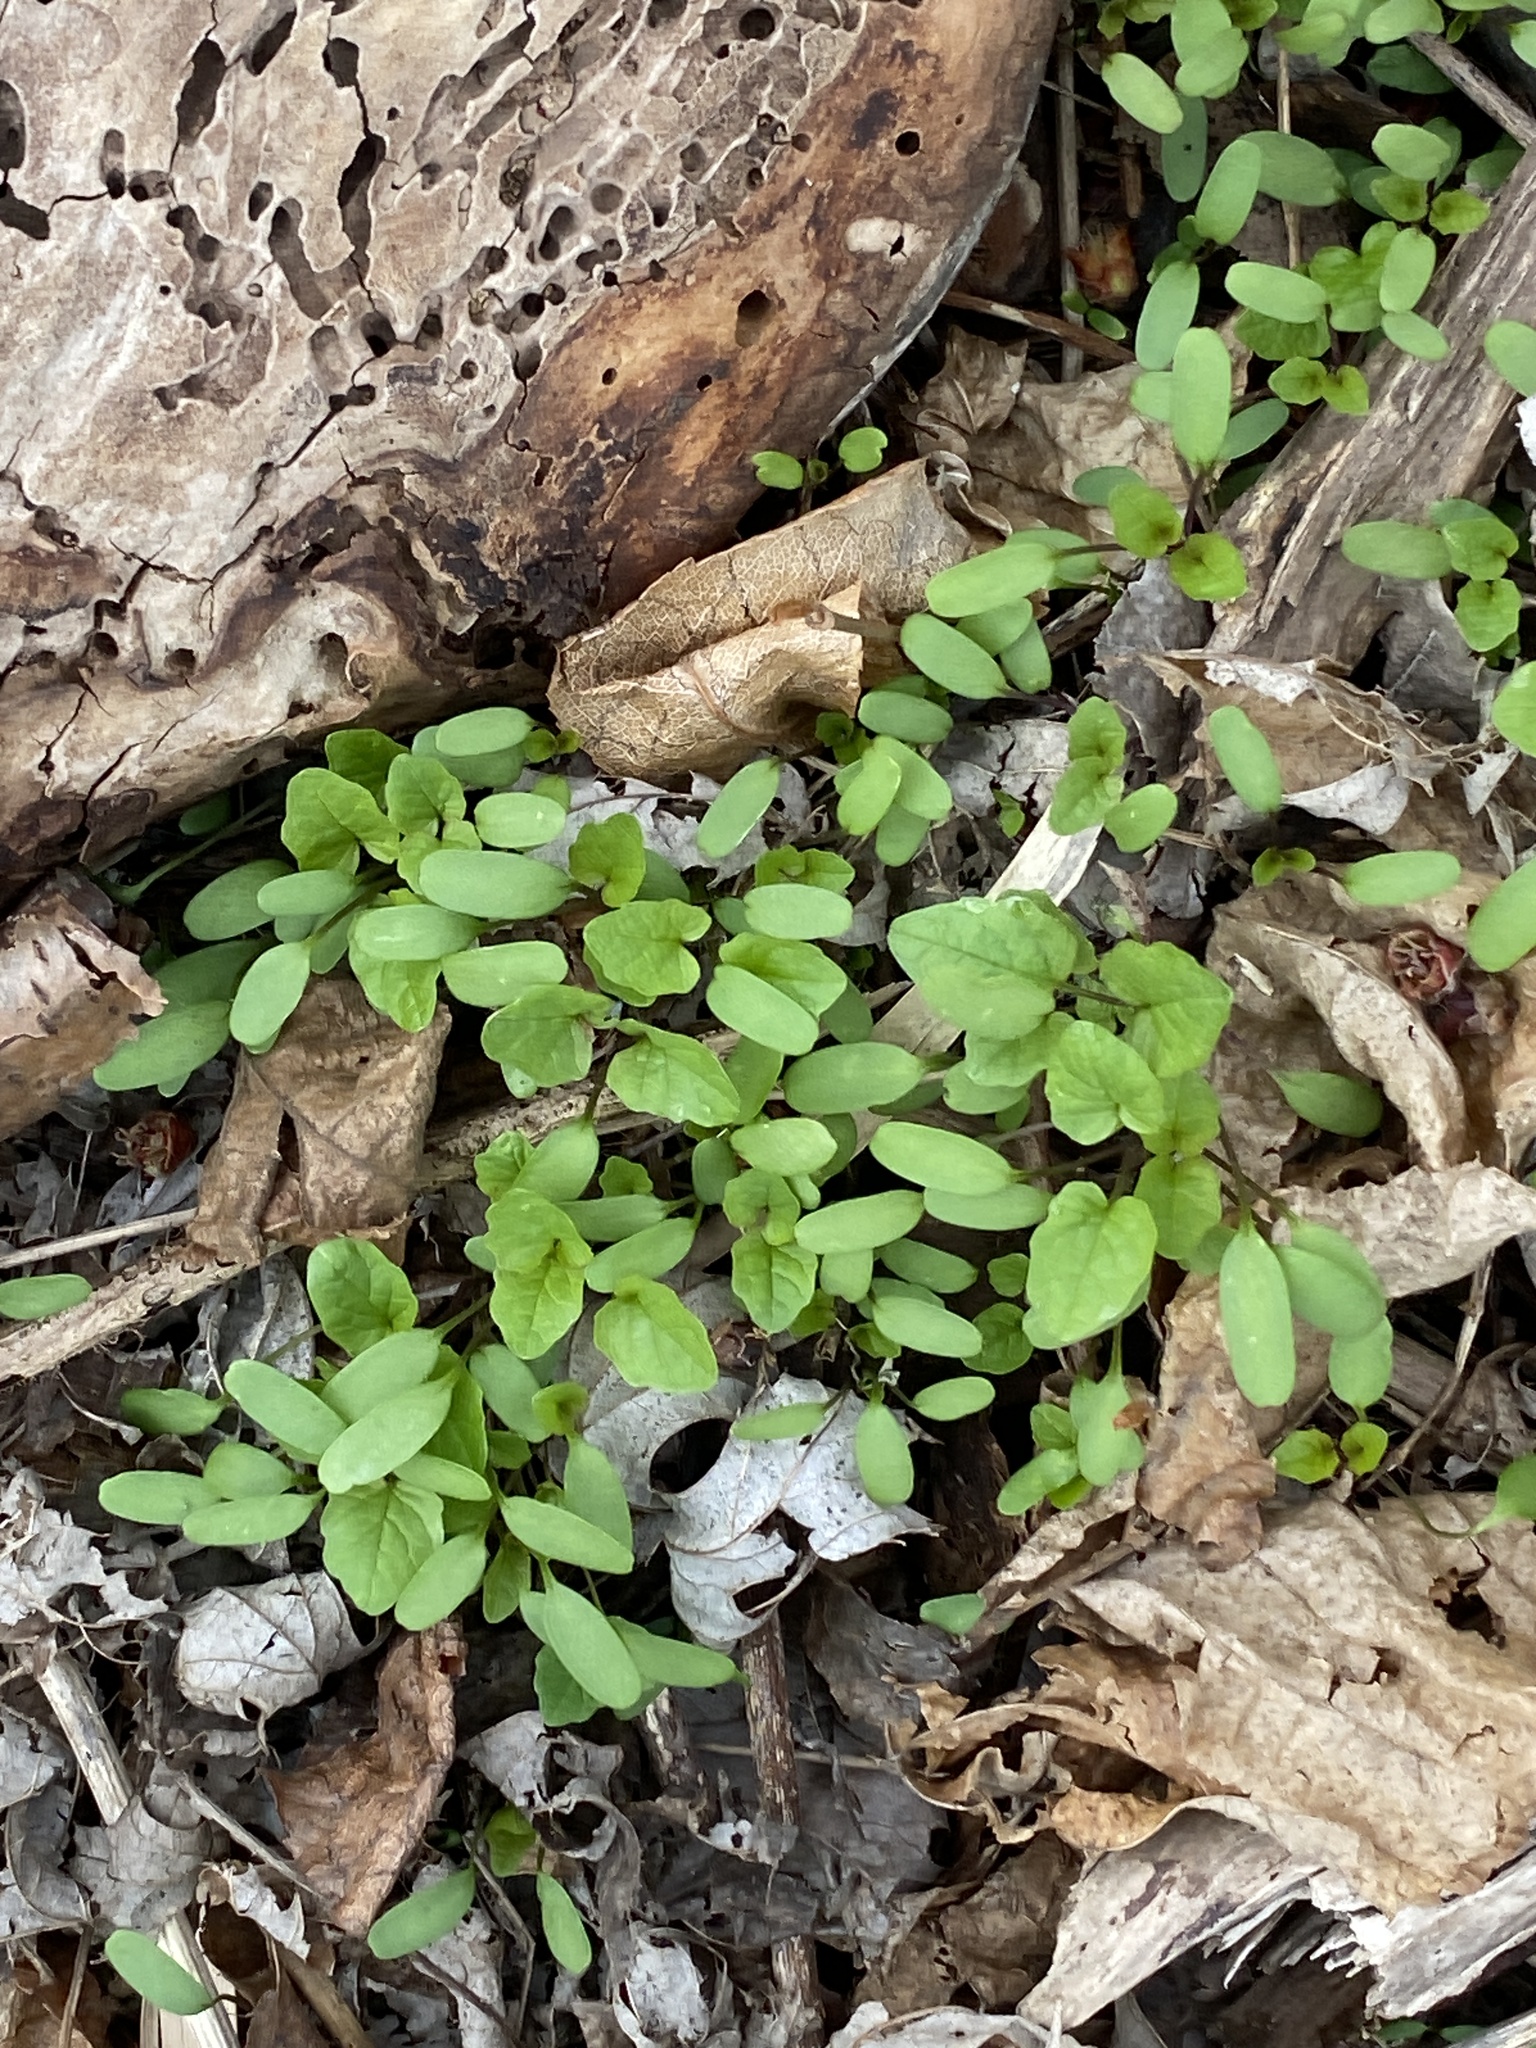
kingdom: Plantae
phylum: Tracheophyta
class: Magnoliopsida
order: Brassicales
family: Brassicaceae
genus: Alliaria
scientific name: Alliaria petiolata
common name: Garlic mustard
